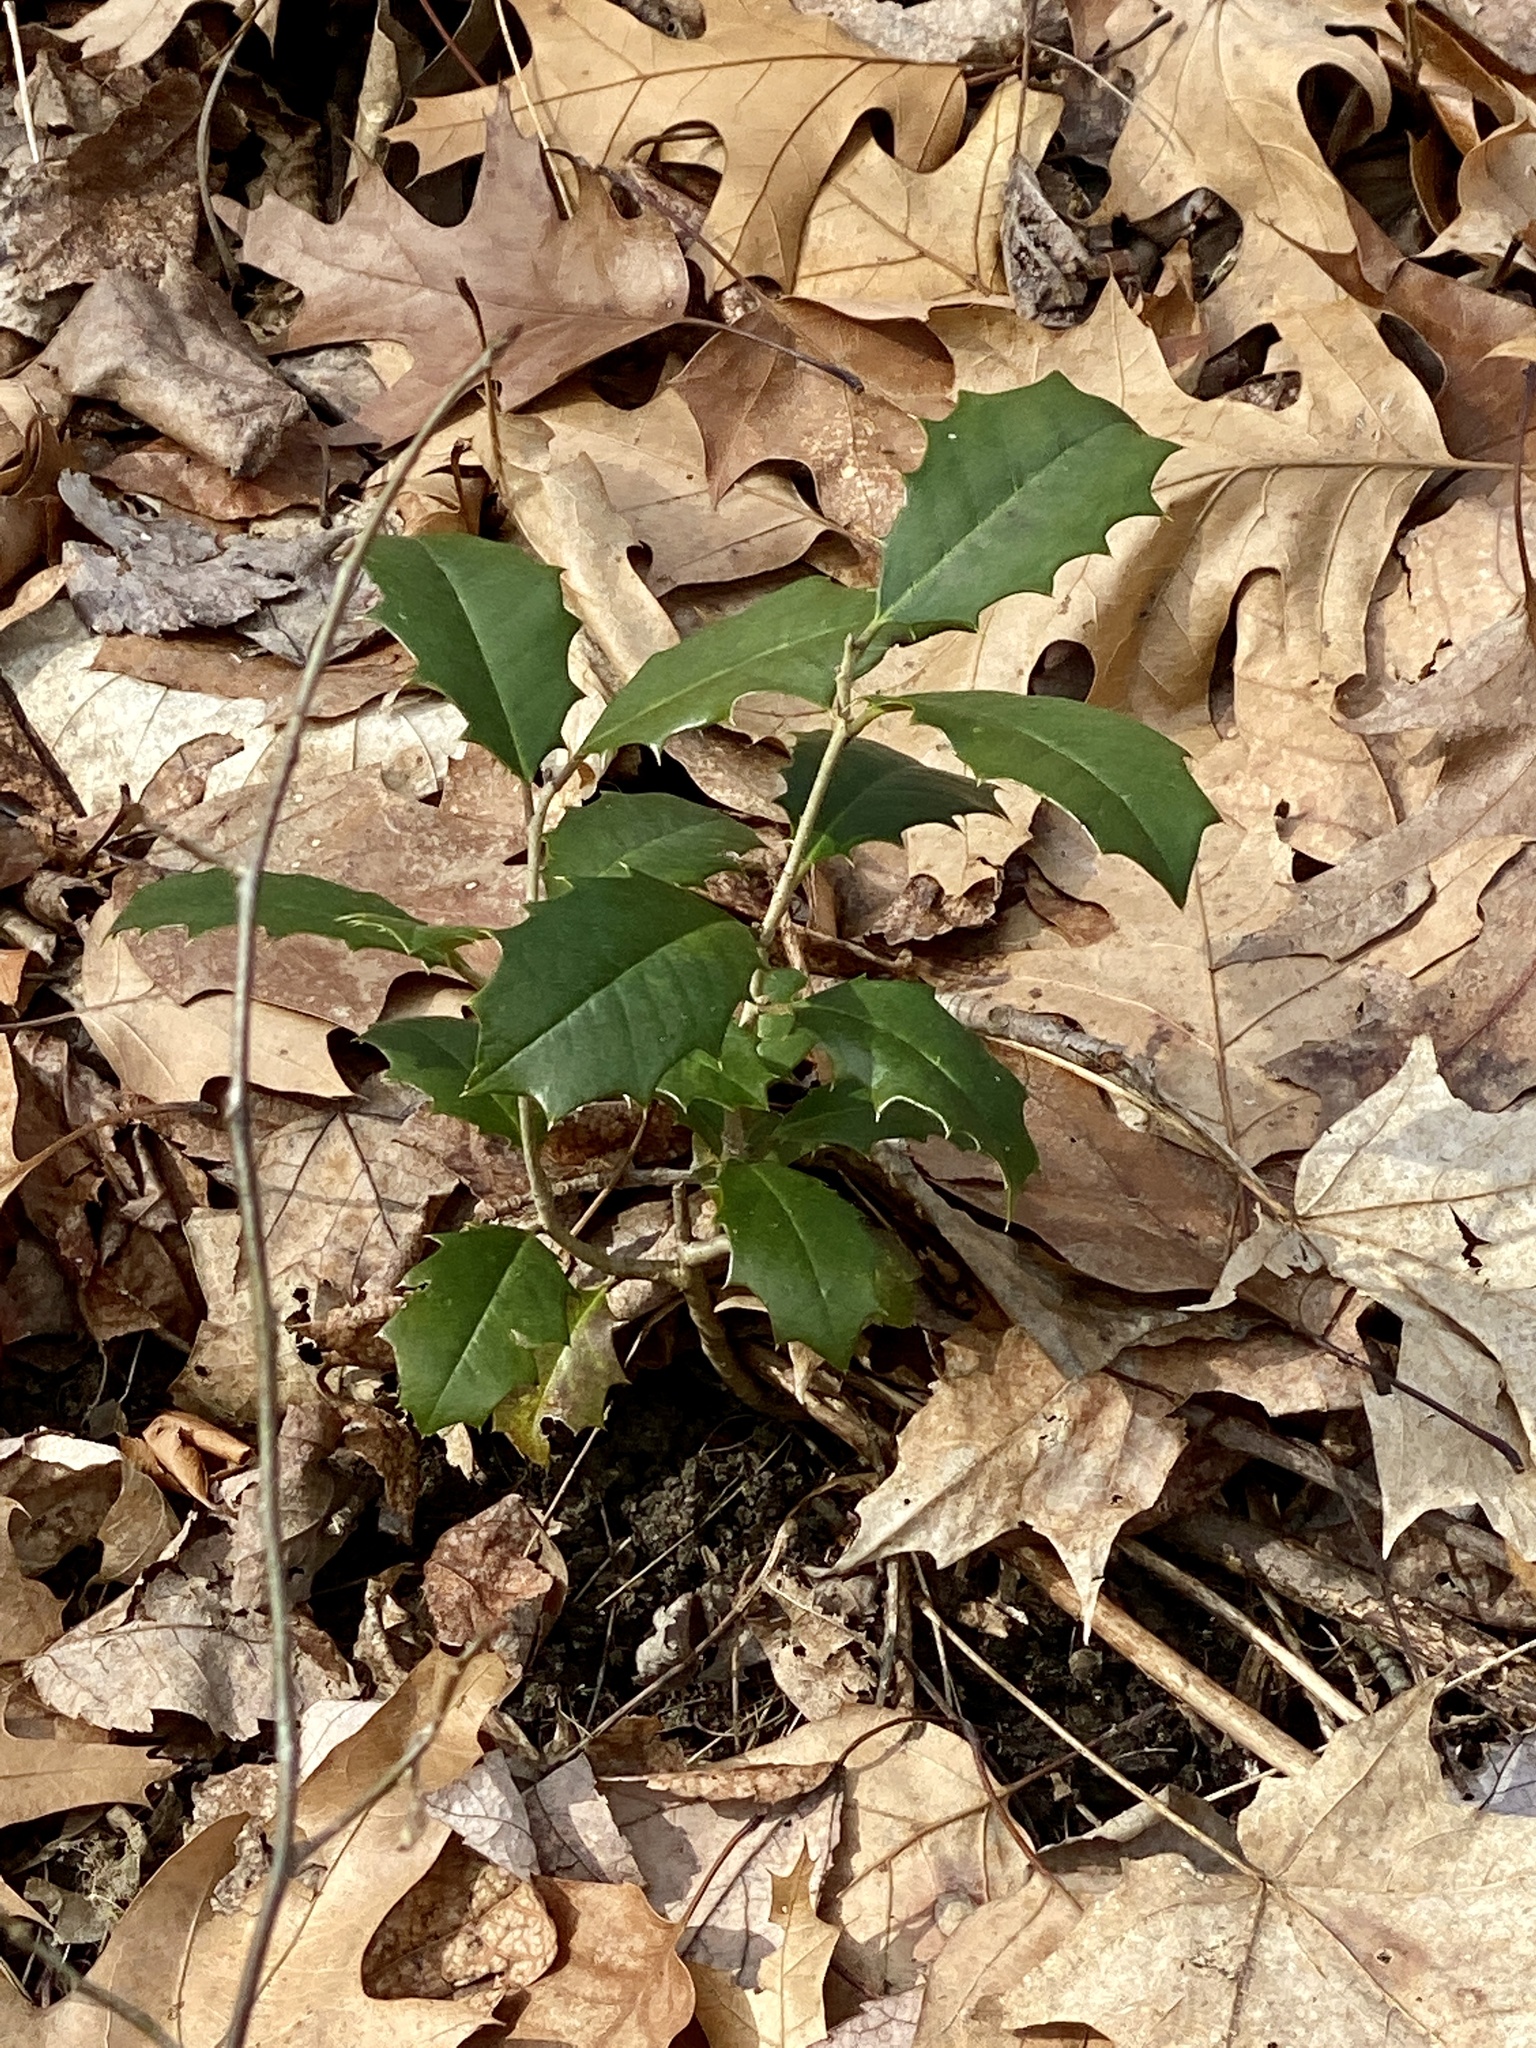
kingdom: Plantae
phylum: Tracheophyta
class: Magnoliopsida
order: Aquifoliales
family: Aquifoliaceae
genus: Ilex
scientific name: Ilex opaca
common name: American holly
